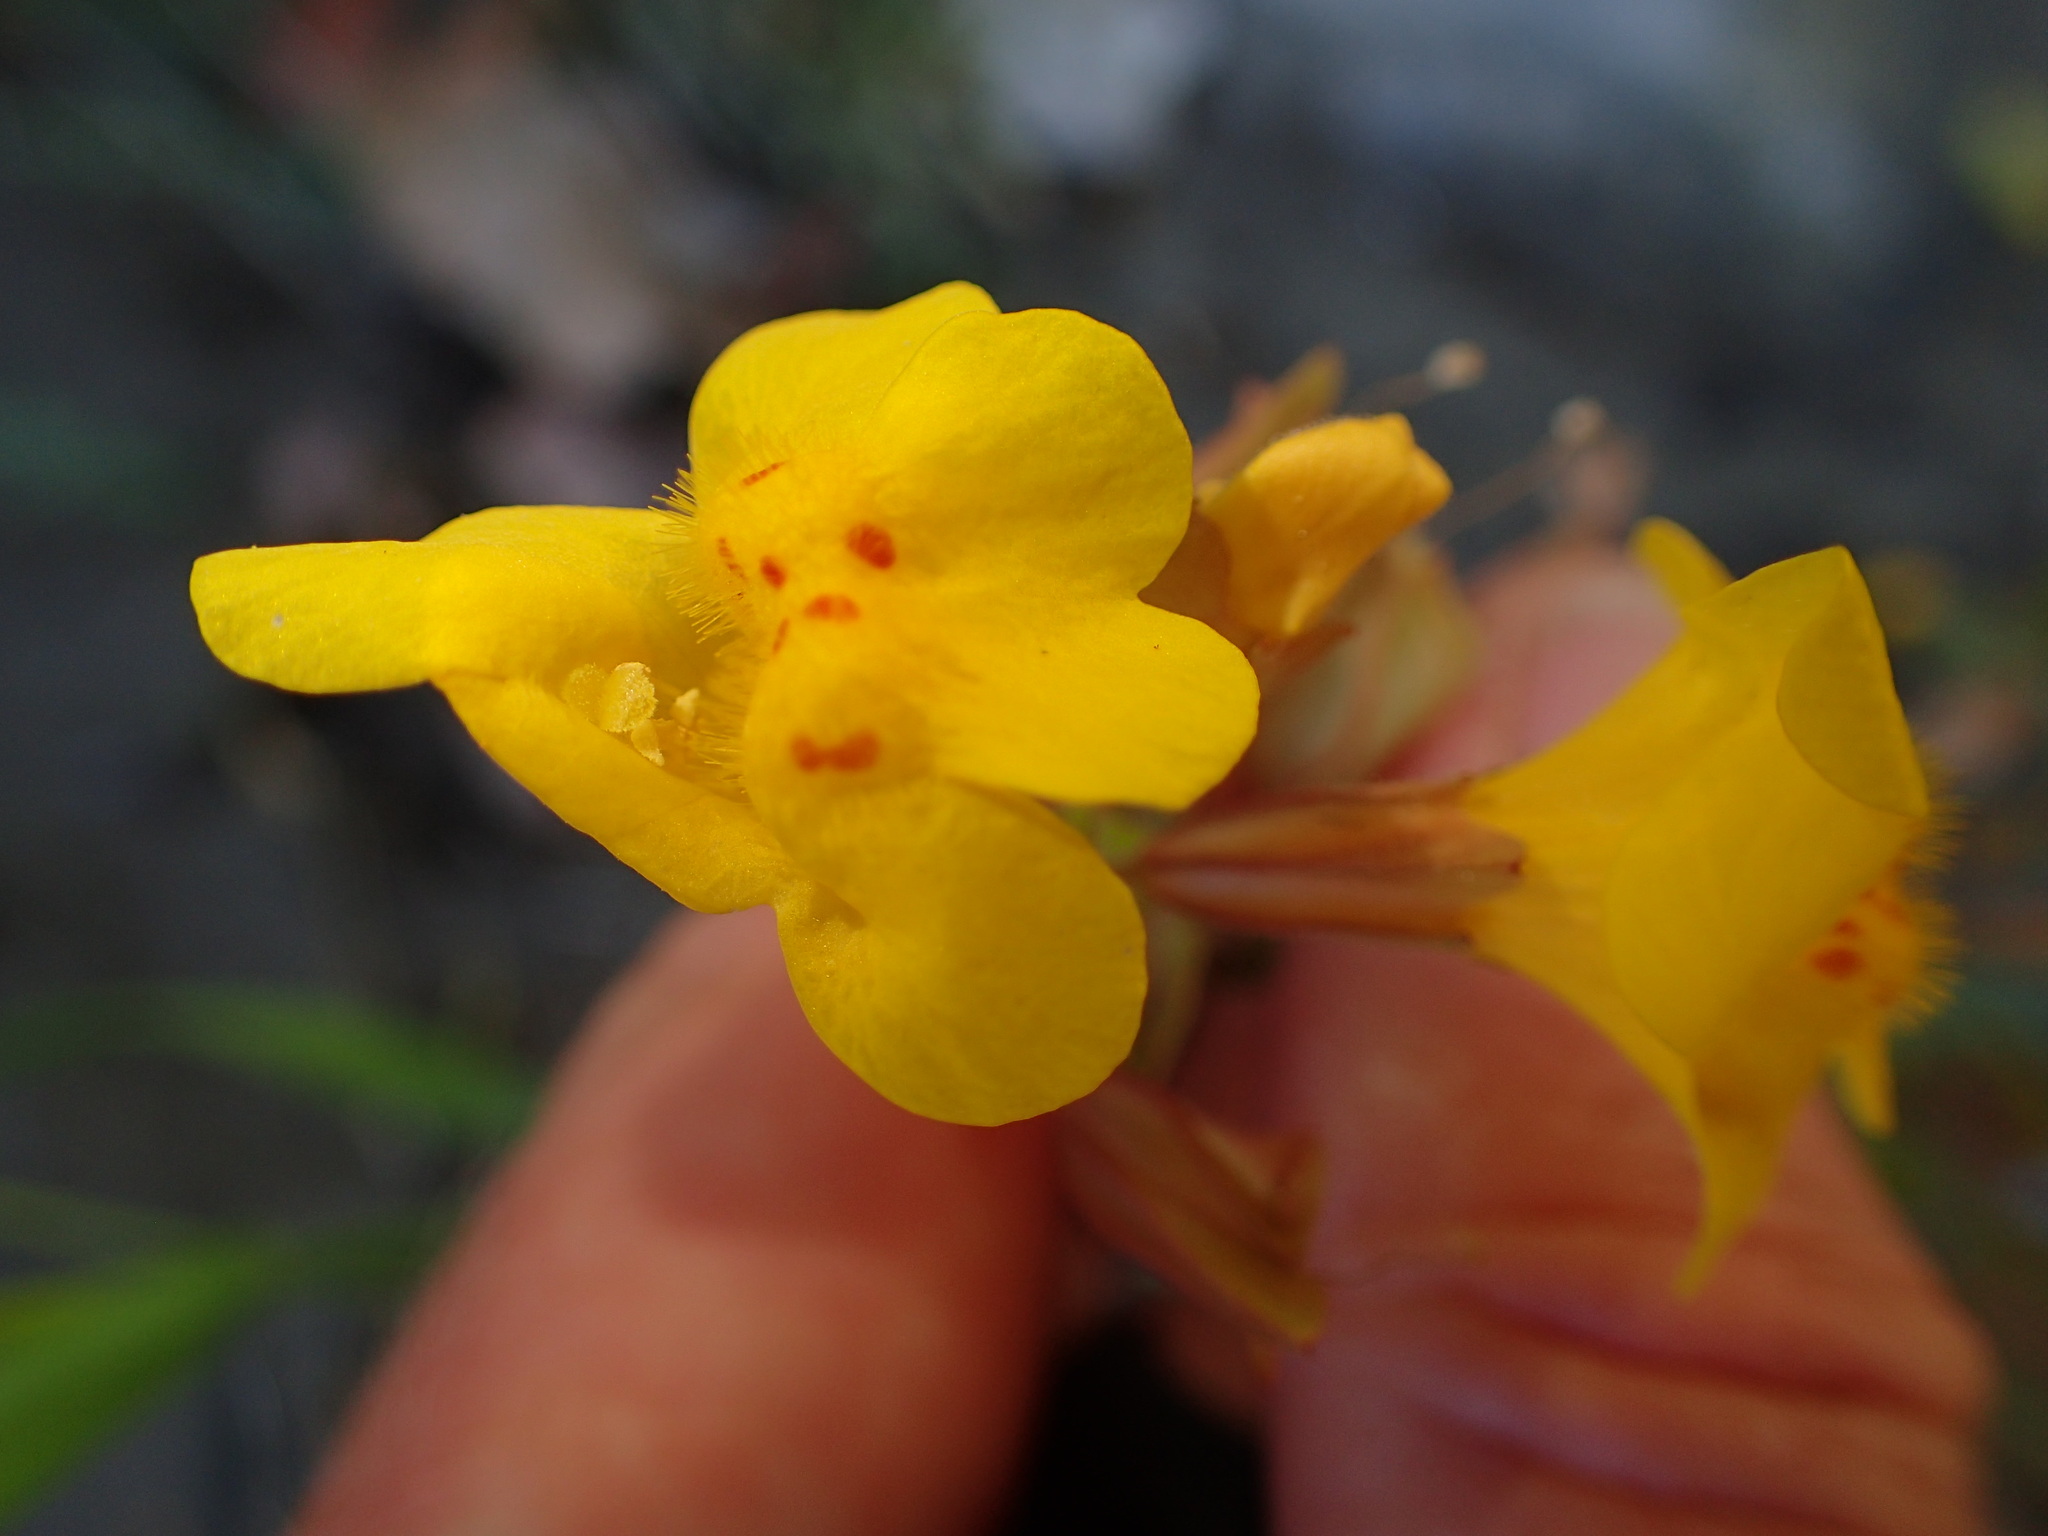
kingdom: Plantae
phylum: Tracheophyta
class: Magnoliopsida
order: Lamiales
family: Phrymaceae
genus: Erythranthe
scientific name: Erythranthe guttata
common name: Monkeyflower
